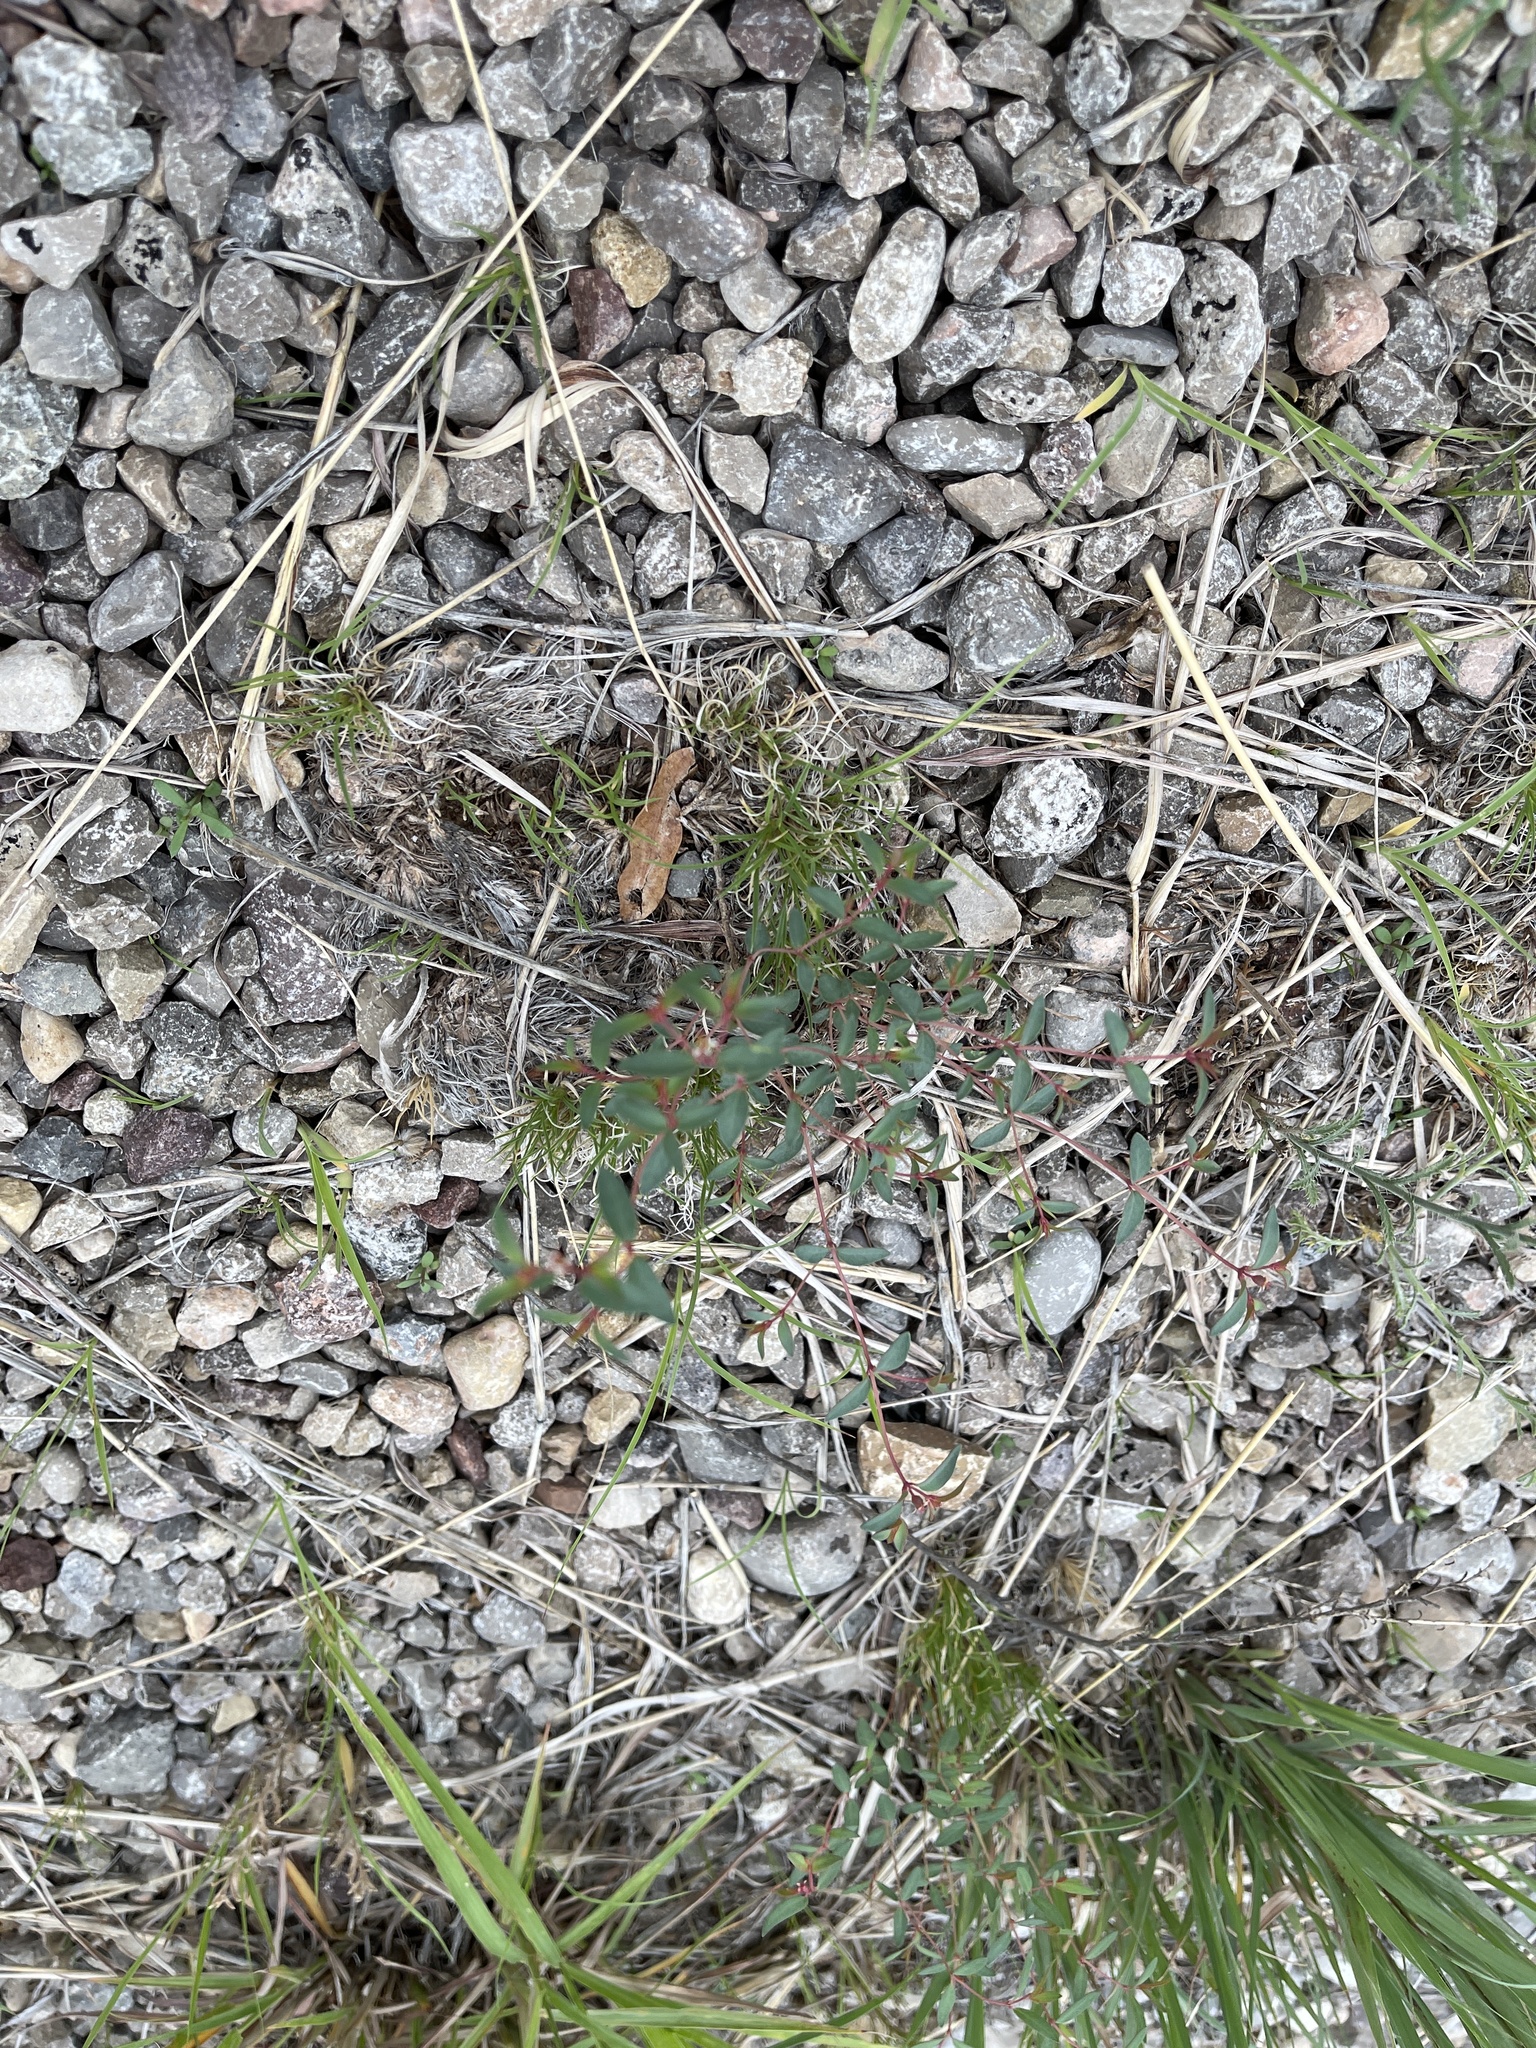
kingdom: Plantae
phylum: Tracheophyta
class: Magnoliopsida
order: Malpighiales
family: Euphorbiaceae
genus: Euphorbia
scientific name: Euphorbia chaetocalyx
